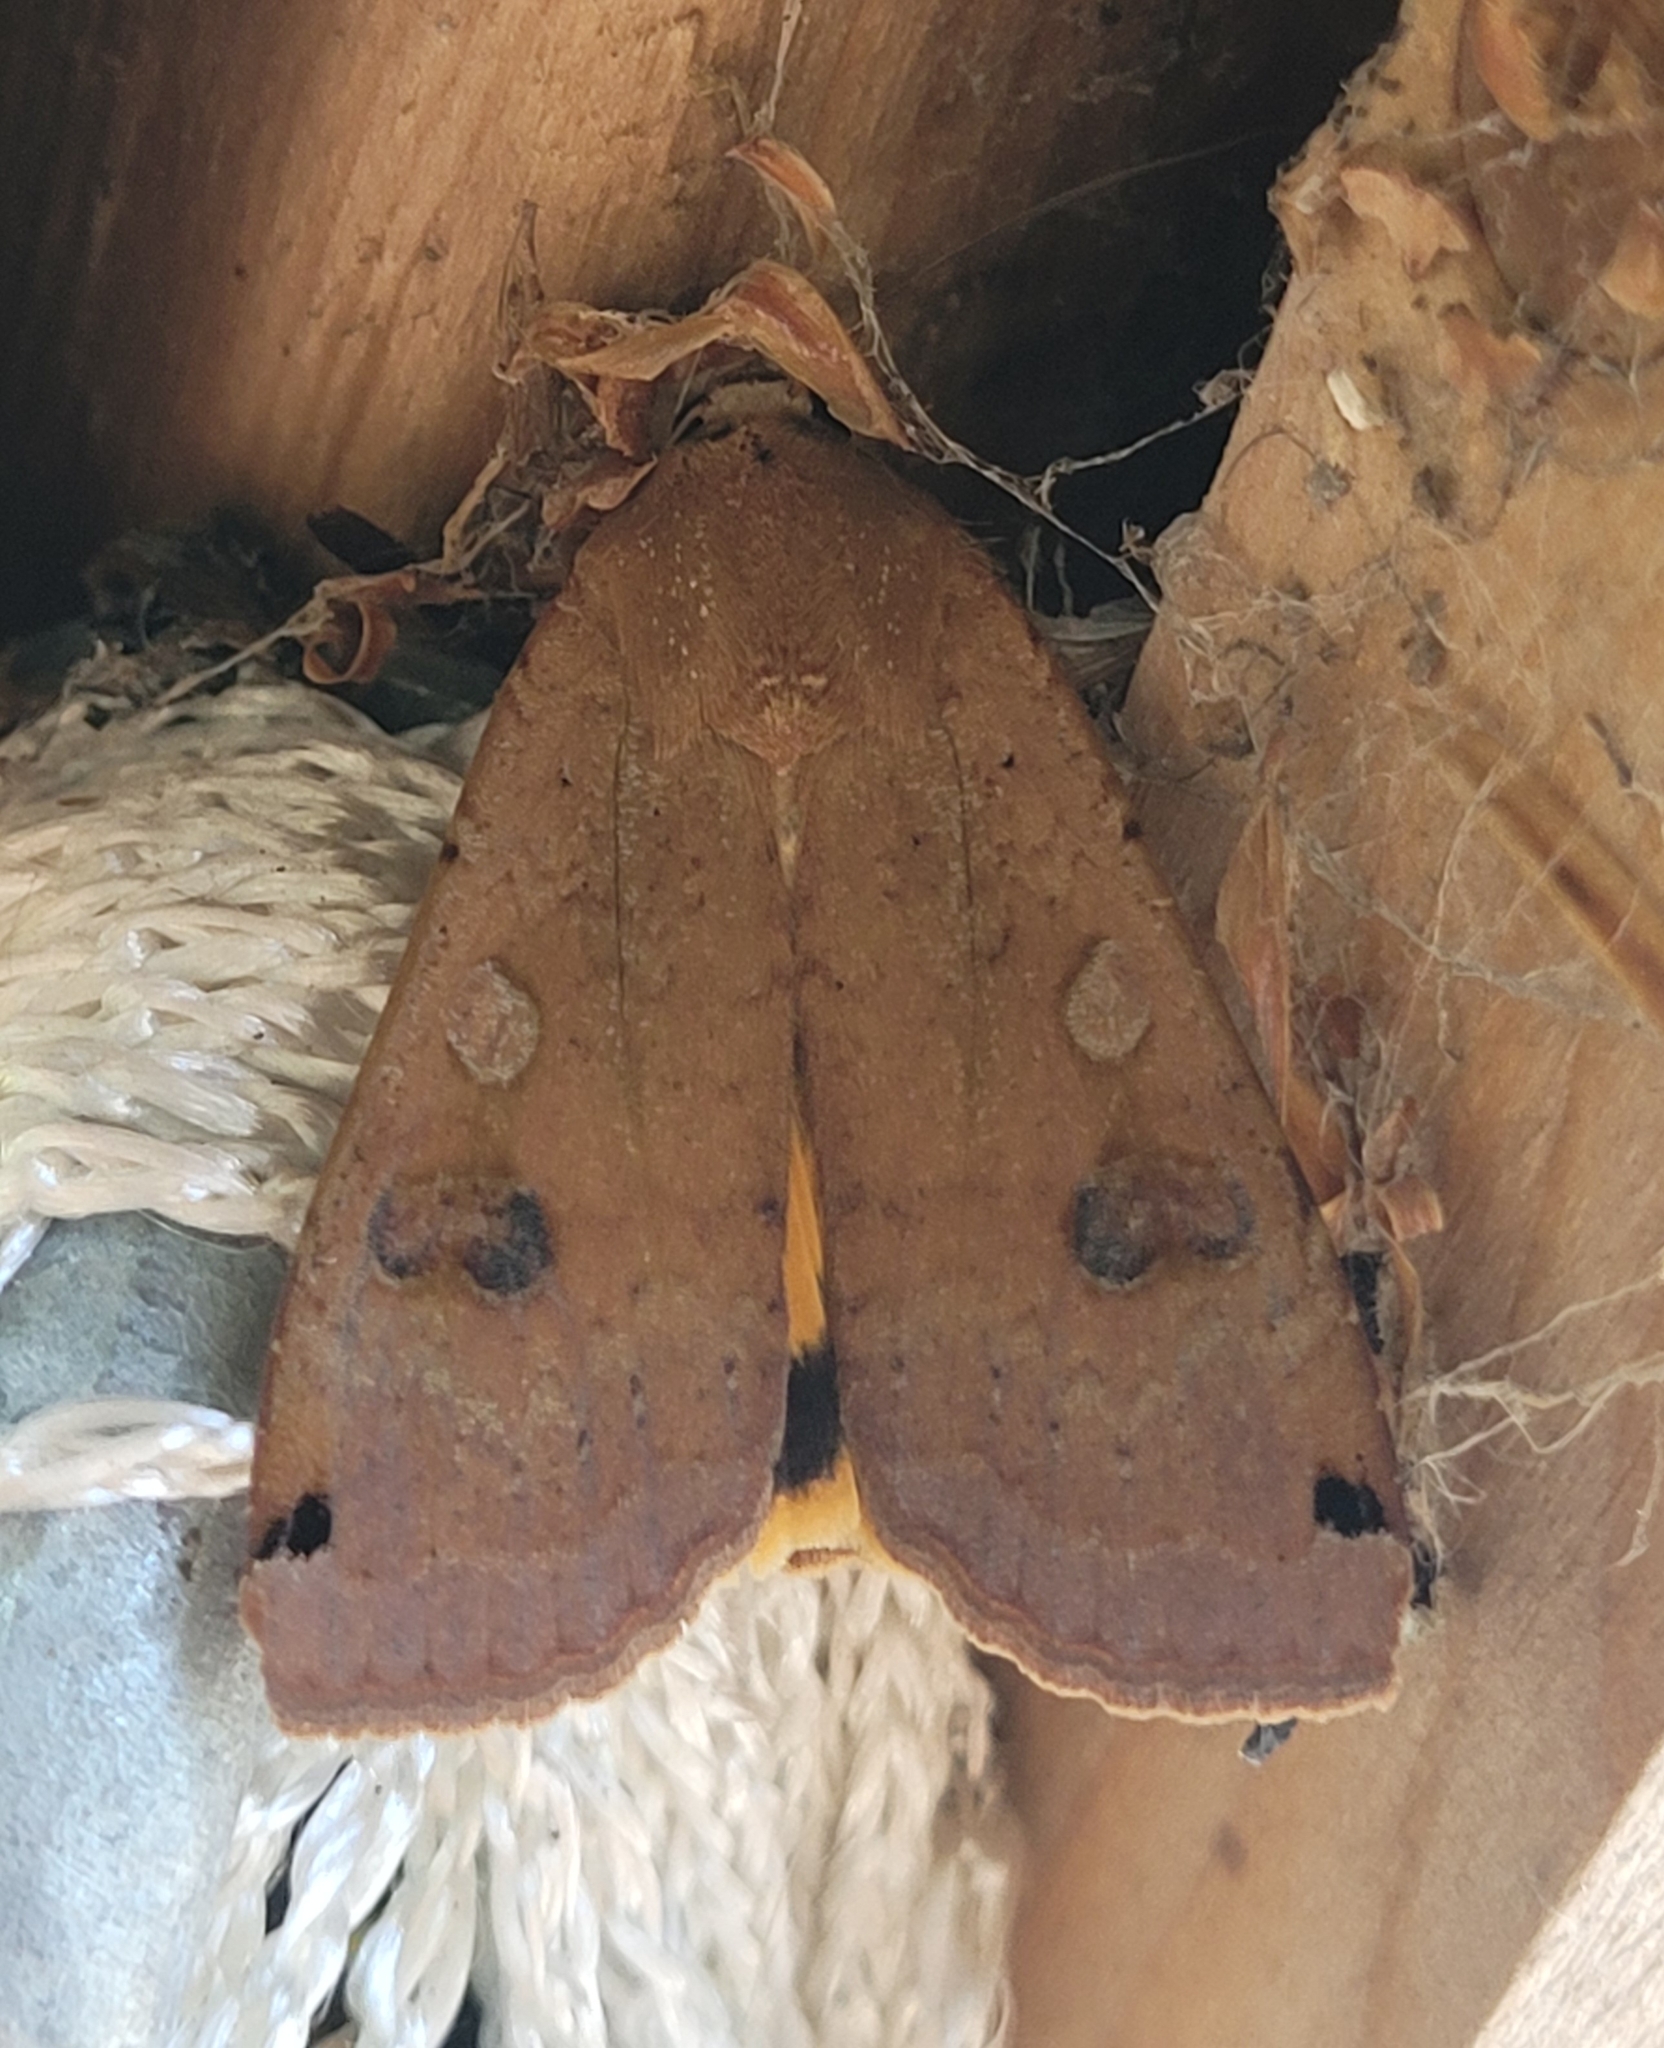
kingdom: Animalia
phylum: Arthropoda
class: Insecta
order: Lepidoptera
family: Noctuidae
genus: Noctua
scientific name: Noctua pronuba
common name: Large yellow underwing
